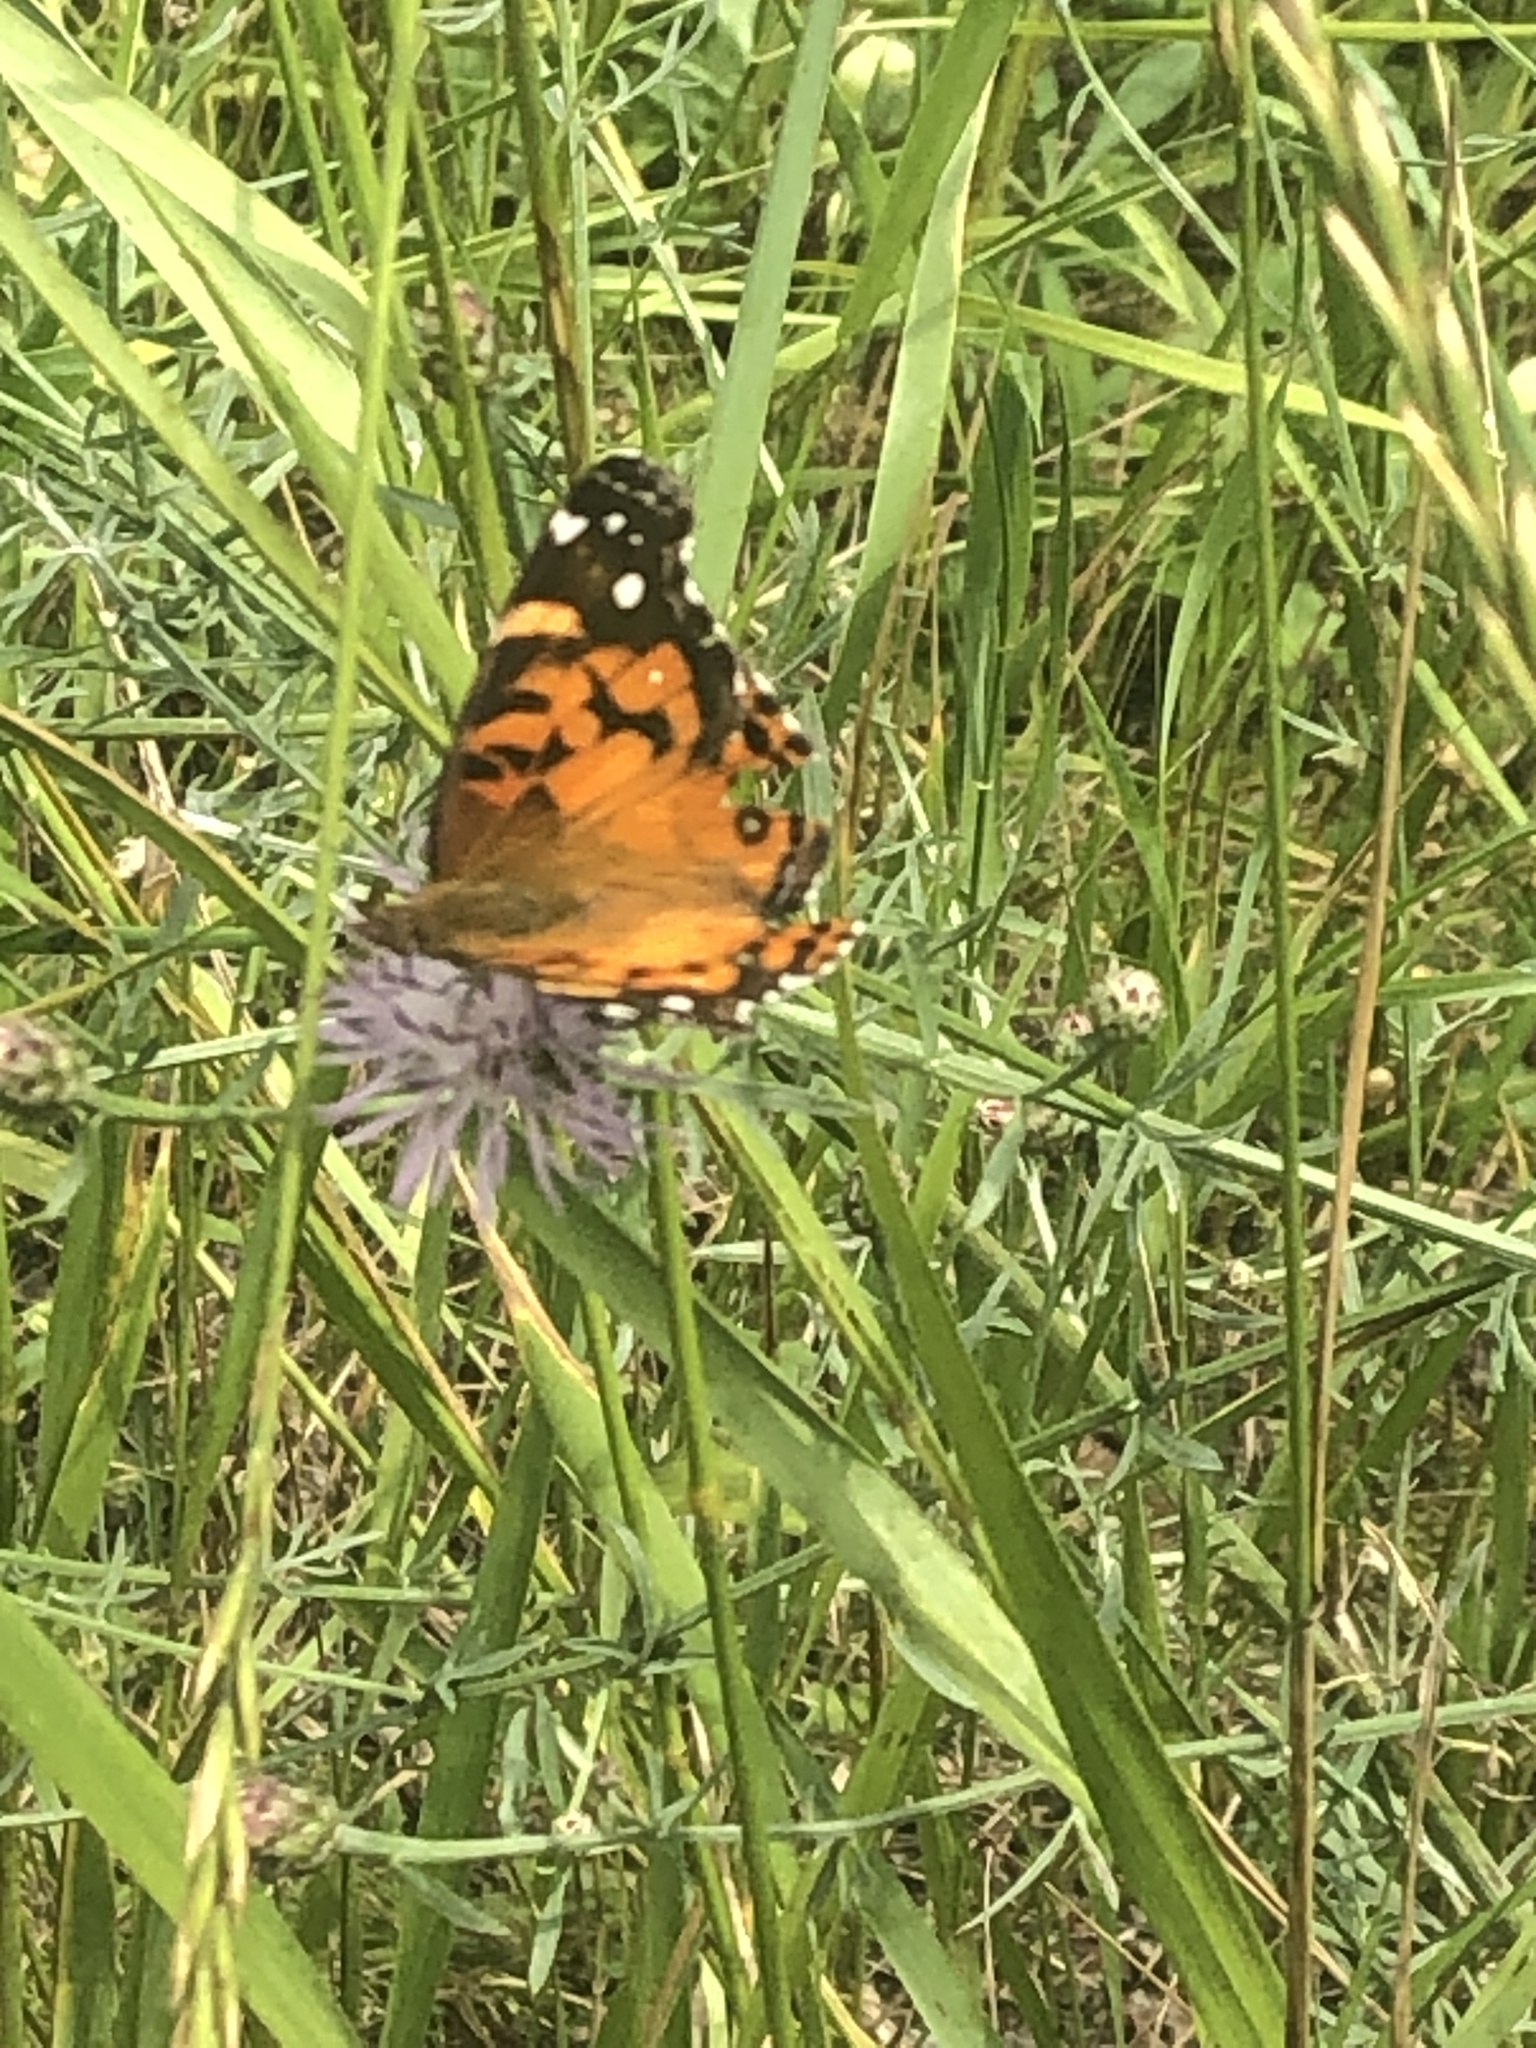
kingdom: Animalia
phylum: Arthropoda
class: Insecta
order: Lepidoptera
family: Nymphalidae
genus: Vanessa
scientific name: Vanessa virginiensis
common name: American lady
